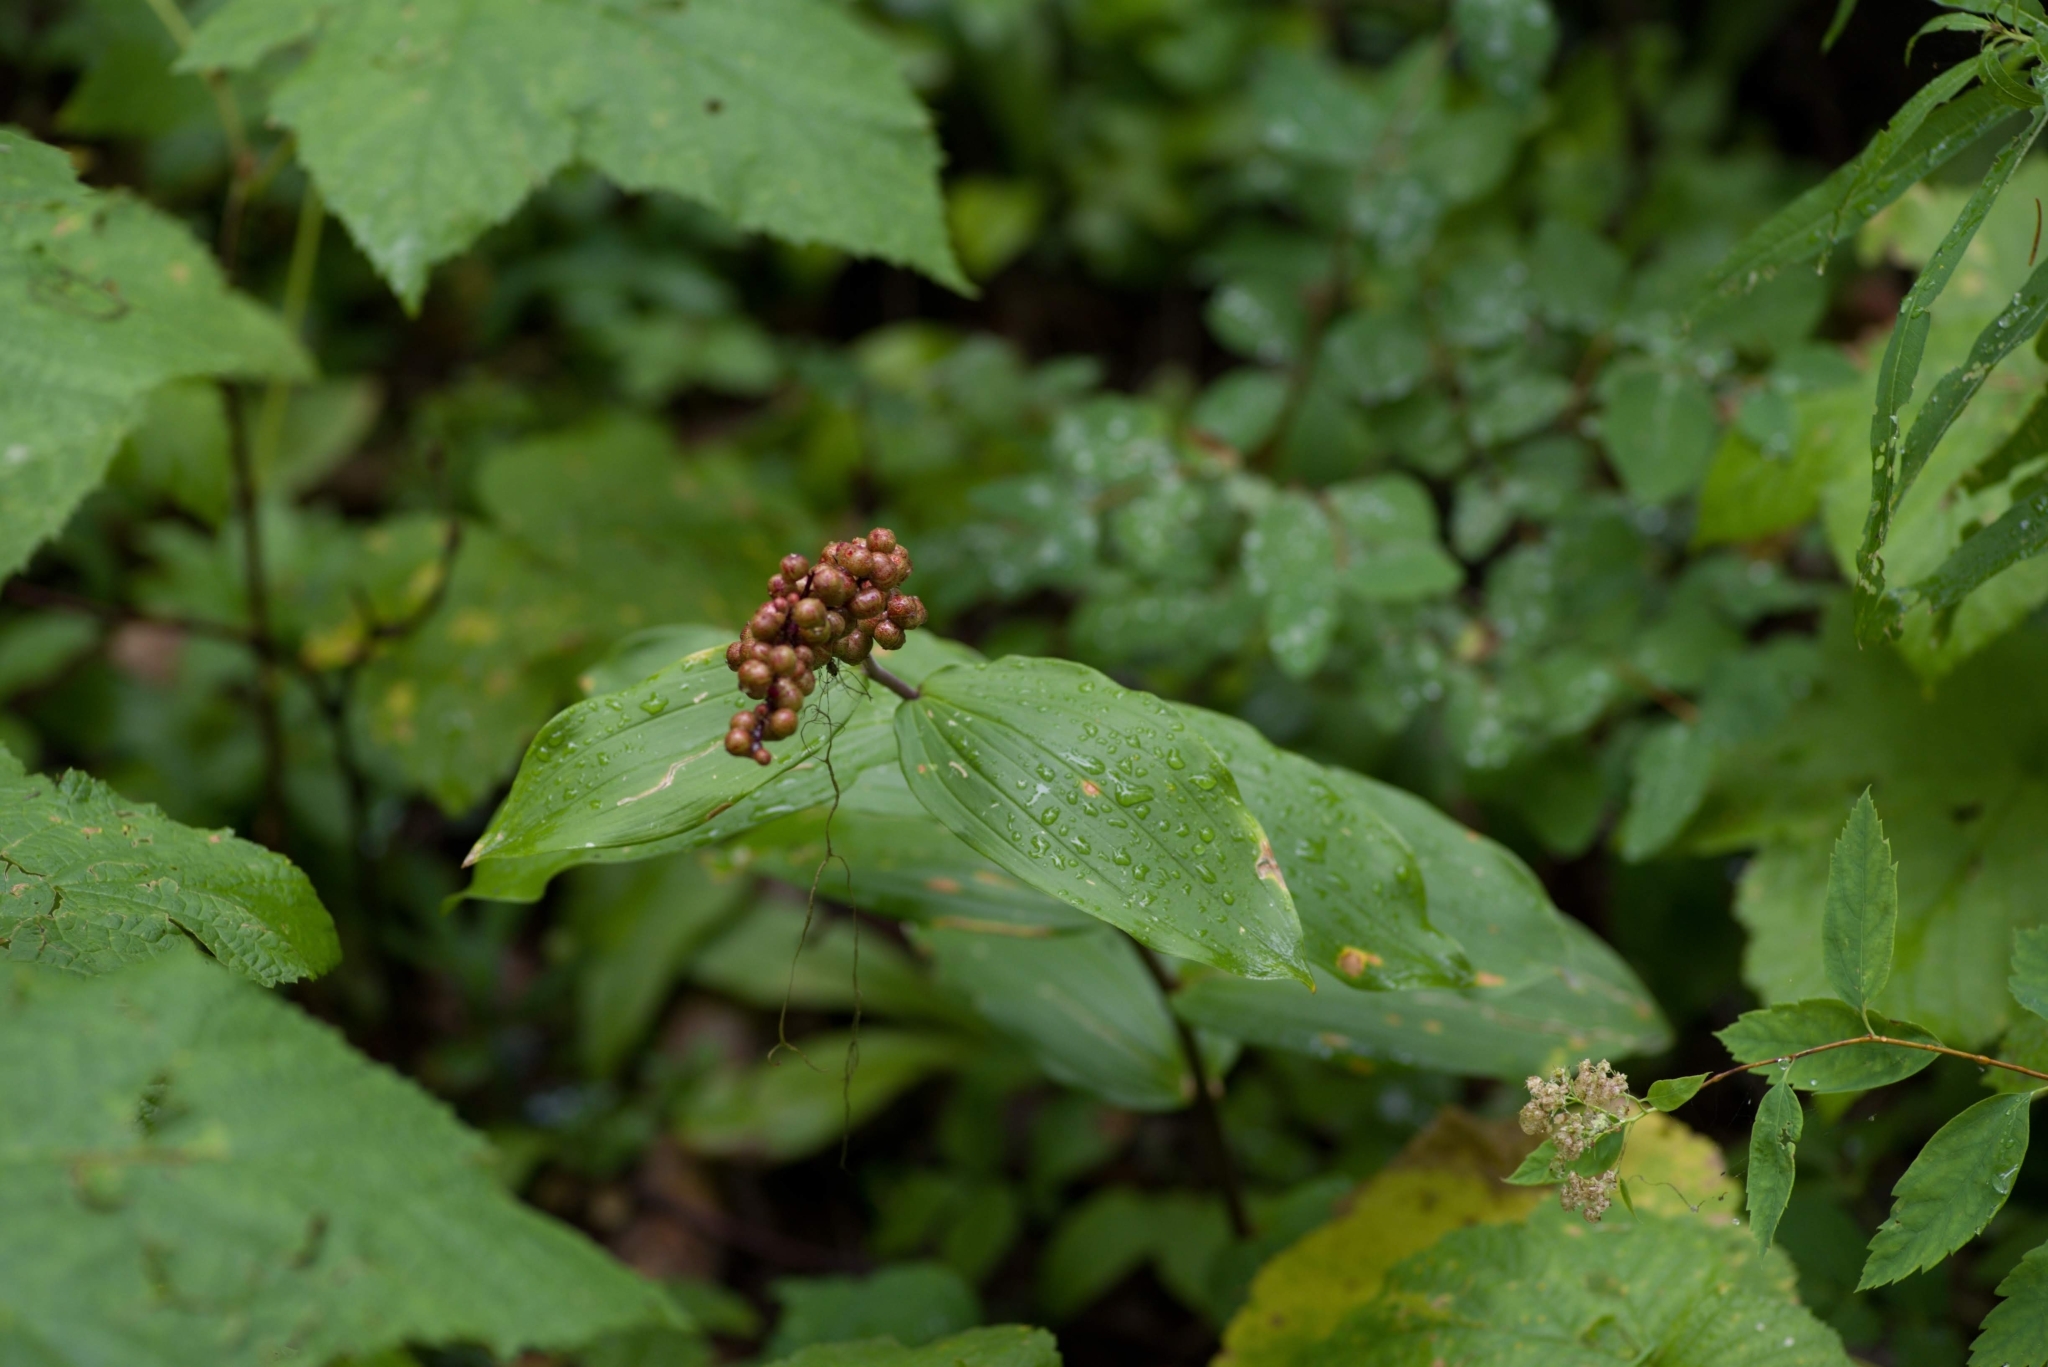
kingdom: Plantae
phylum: Tracheophyta
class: Liliopsida
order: Asparagales
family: Asparagaceae
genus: Maianthemum
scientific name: Maianthemum racemosum
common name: False spikenard
